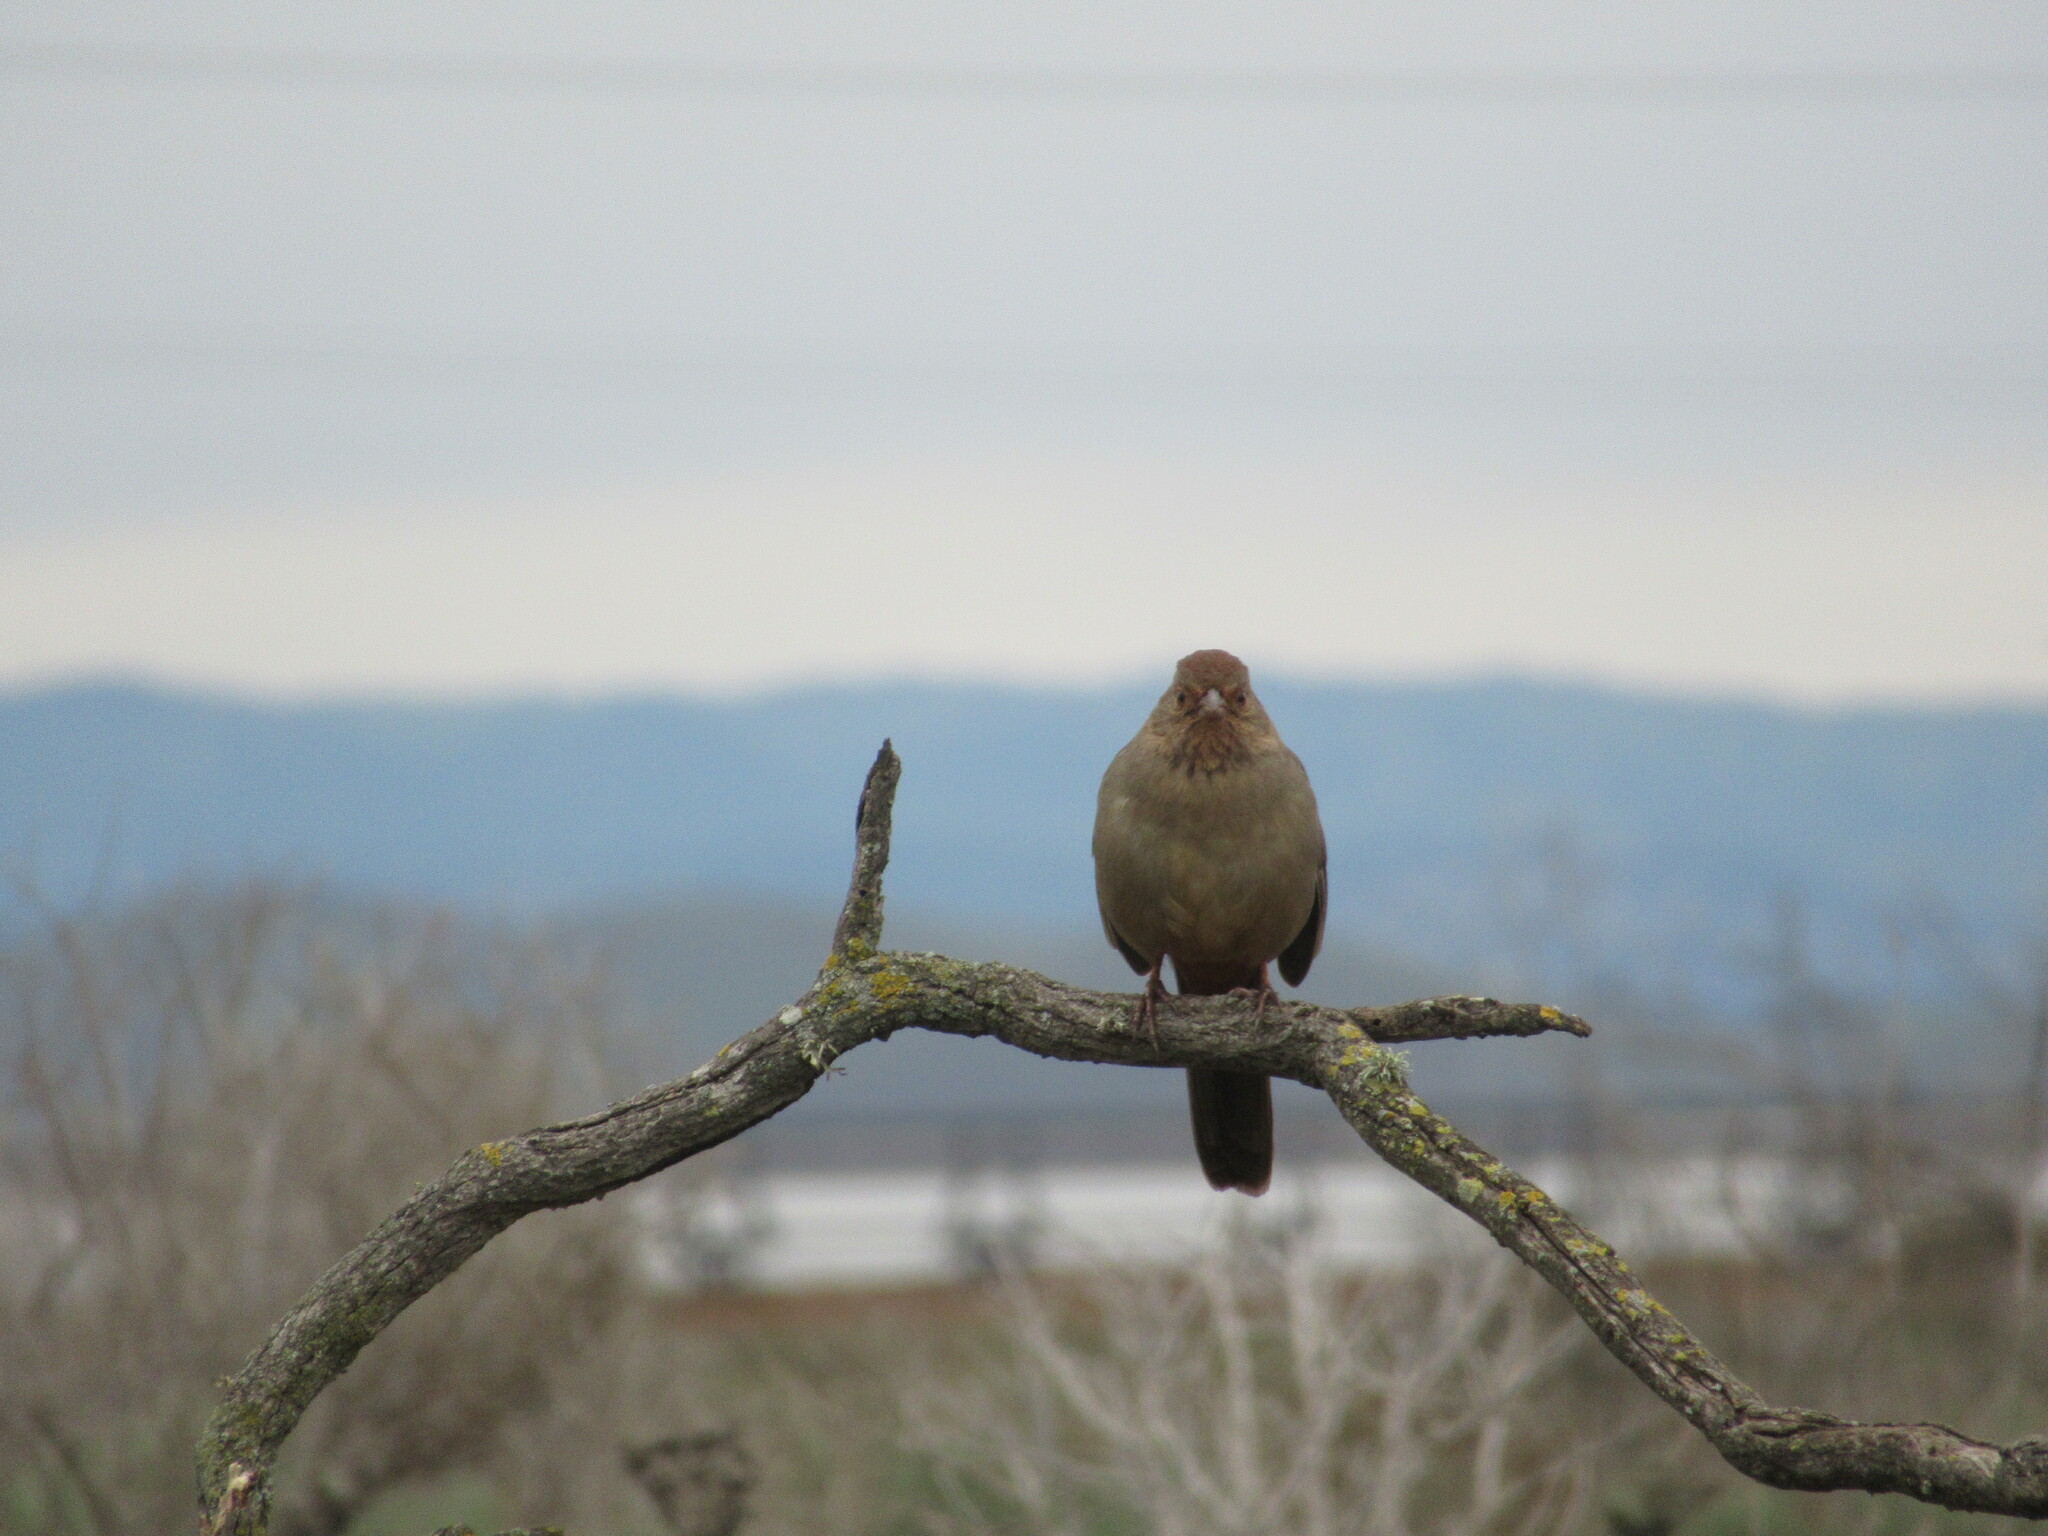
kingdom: Animalia
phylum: Chordata
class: Aves
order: Passeriformes
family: Passerellidae
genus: Melozone
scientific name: Melozone crissalis
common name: California towhee
